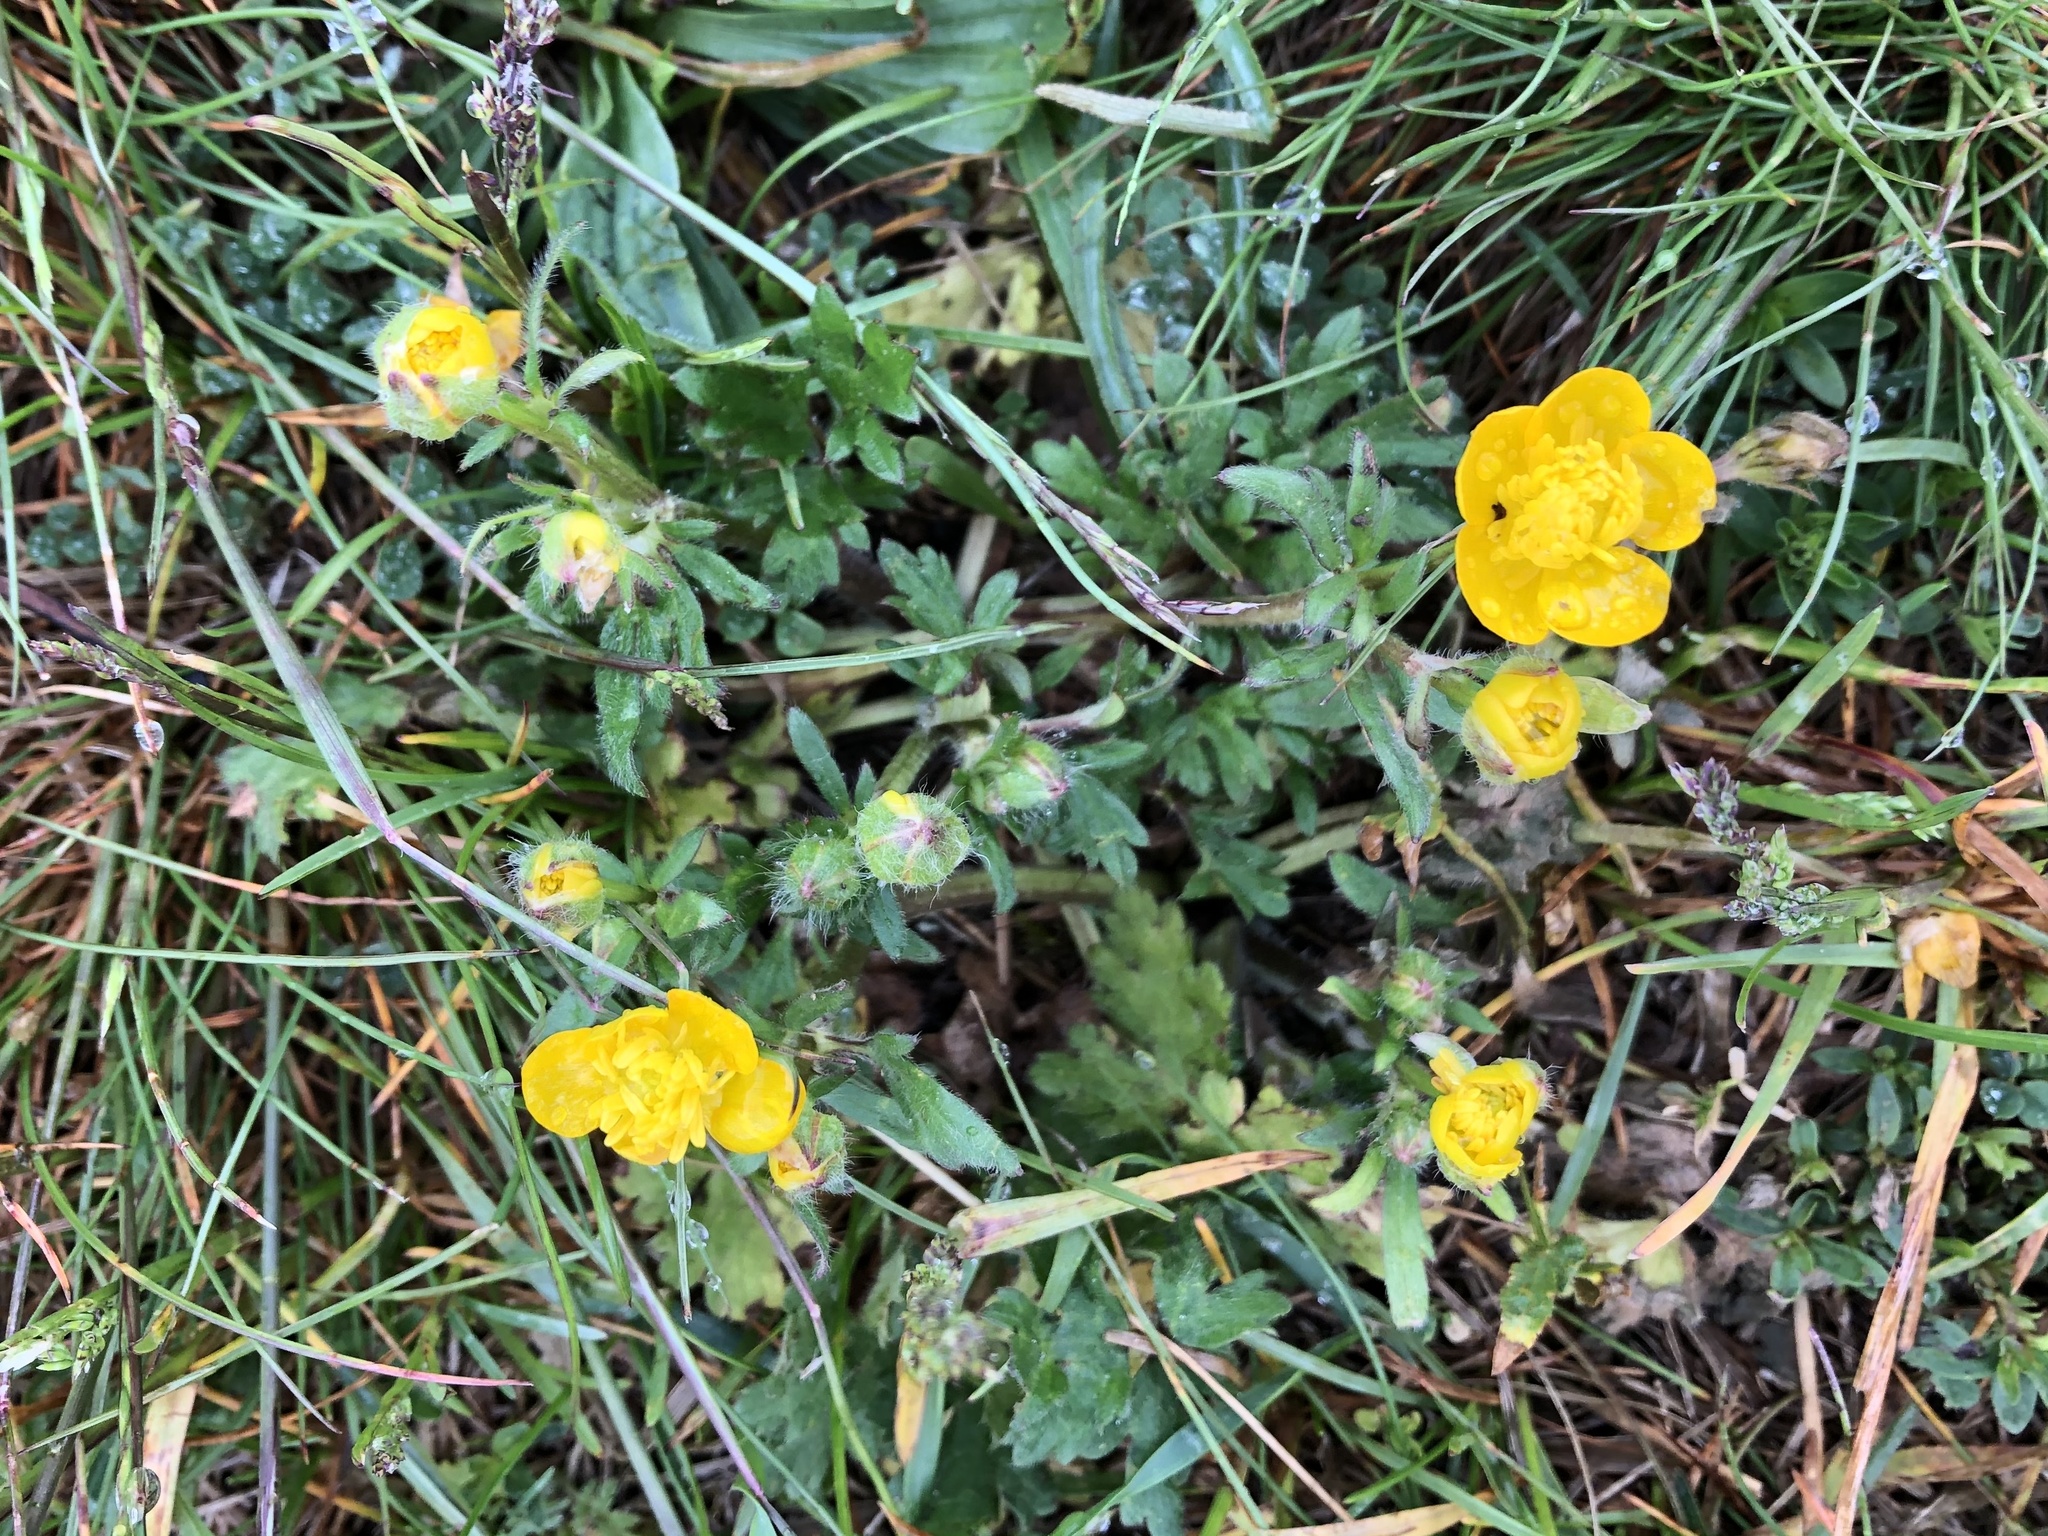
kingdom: Plantae
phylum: Tracheophyta
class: Magnoliopsida
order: Ranunculales
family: Ranunculaceae
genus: Ranunculus
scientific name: Ranunculus bulbosus
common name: Bulbous buttercup
